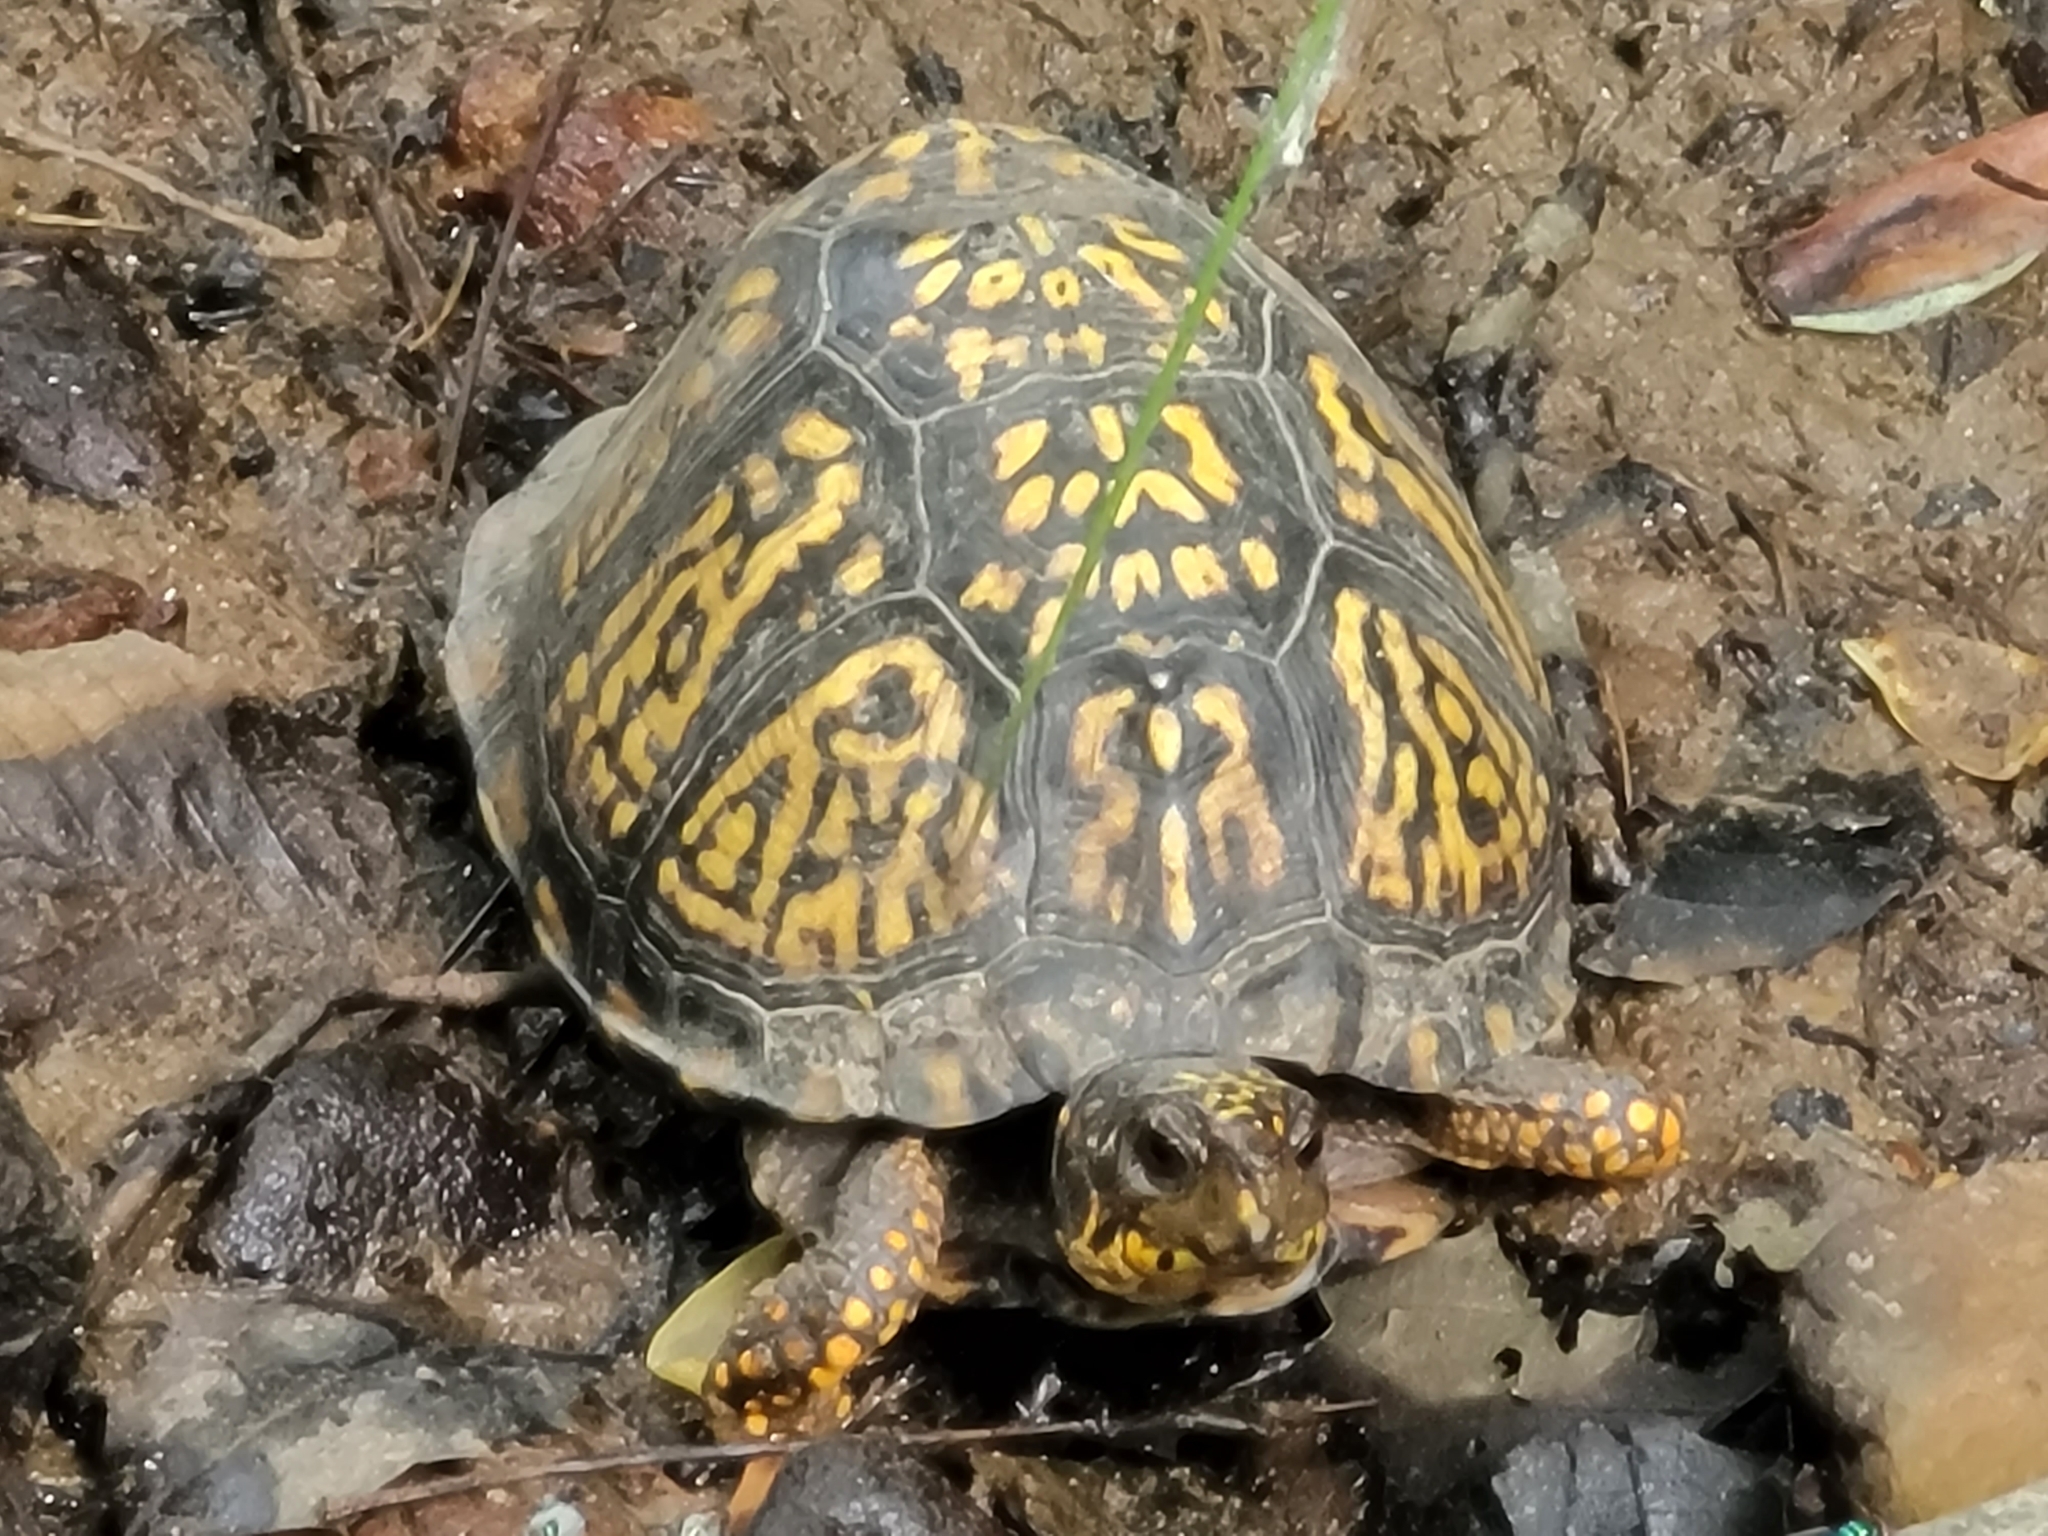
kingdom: Animalia
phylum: Chordata
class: Testudines
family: Emydidae
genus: Terrapene
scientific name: Terrapene carolina
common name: Common box turtle
